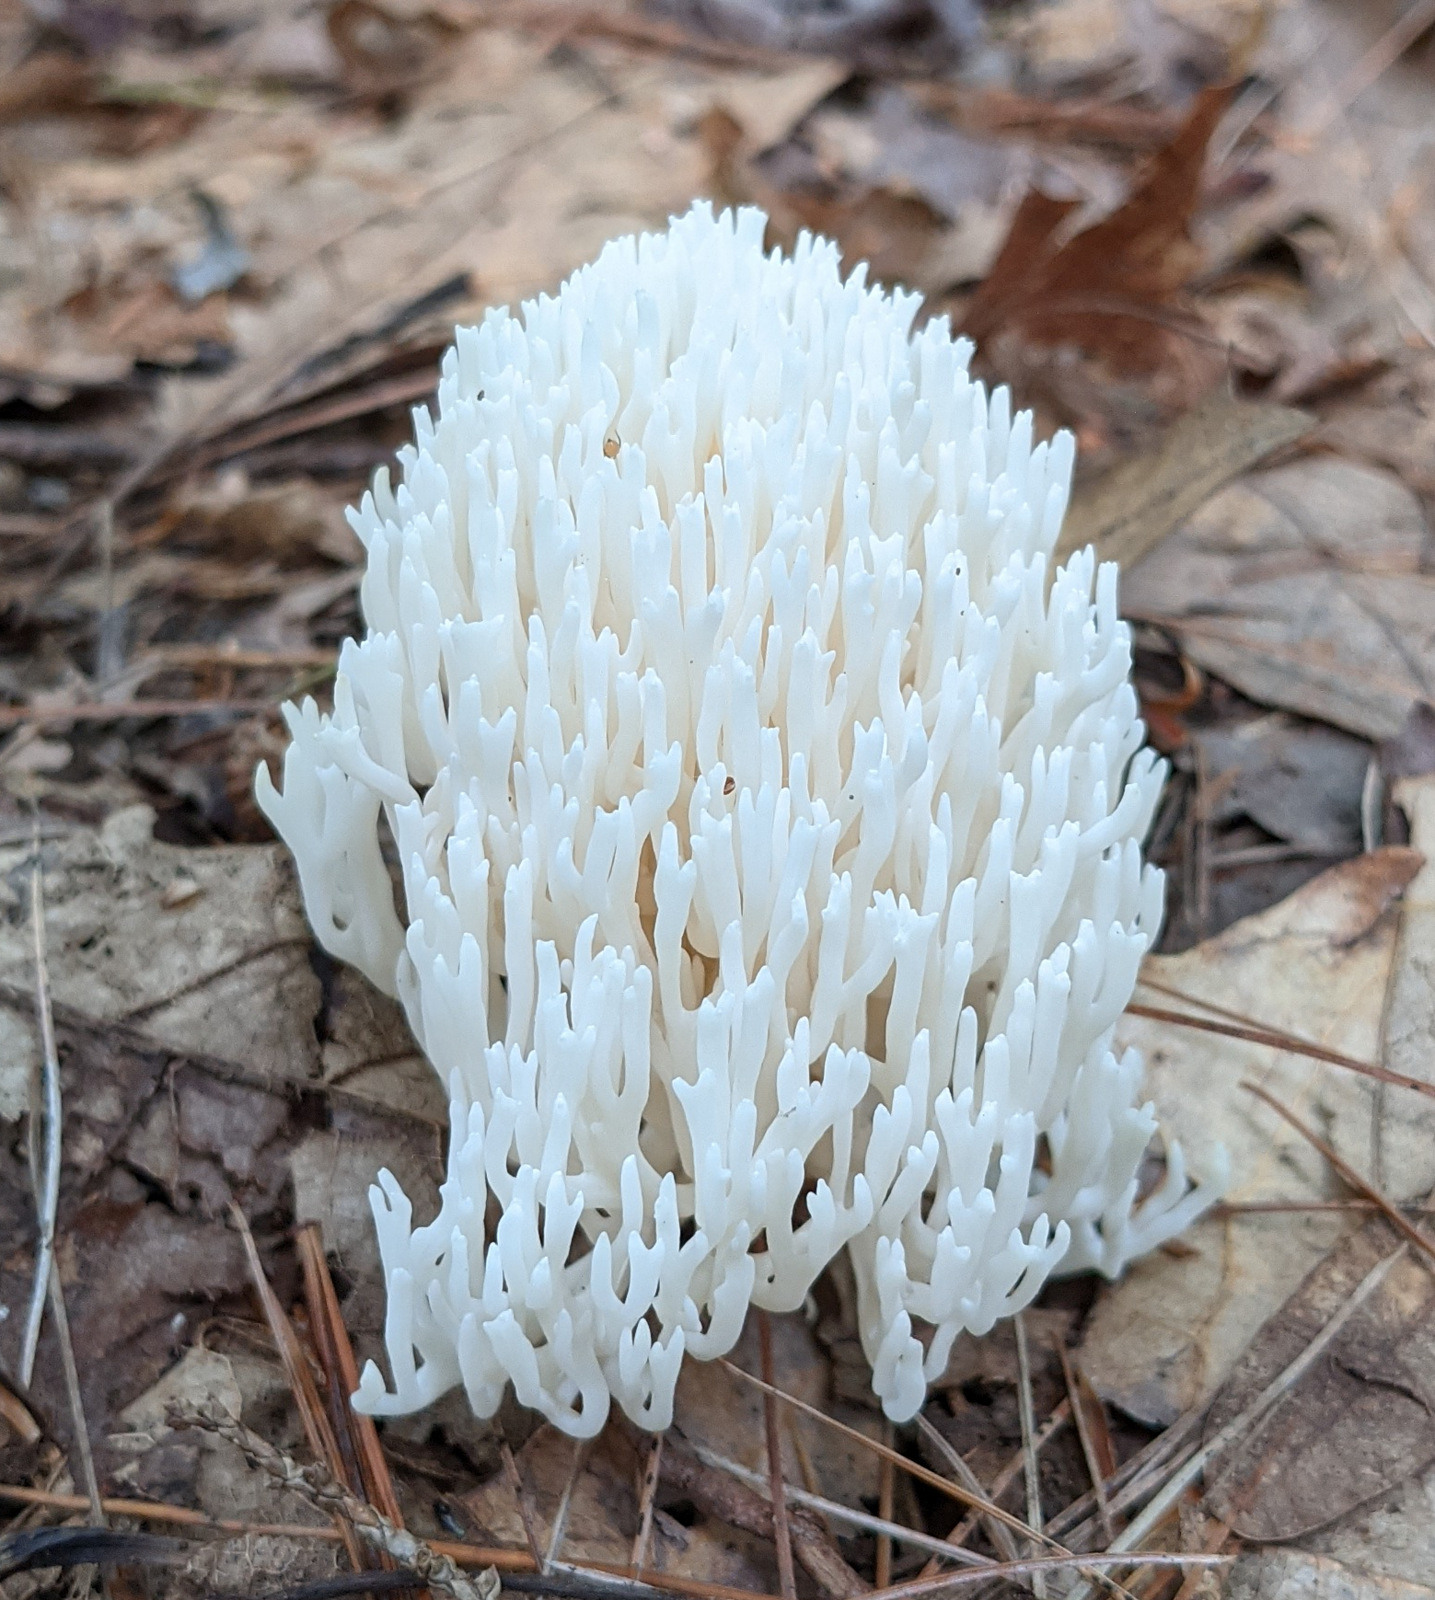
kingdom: Fungi
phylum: Basidiomycota
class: Agaricomycetes
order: Agaricales
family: Clavariaceae
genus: Ramariopsis
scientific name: Ramariopsis kunzei
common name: Ivory coral
